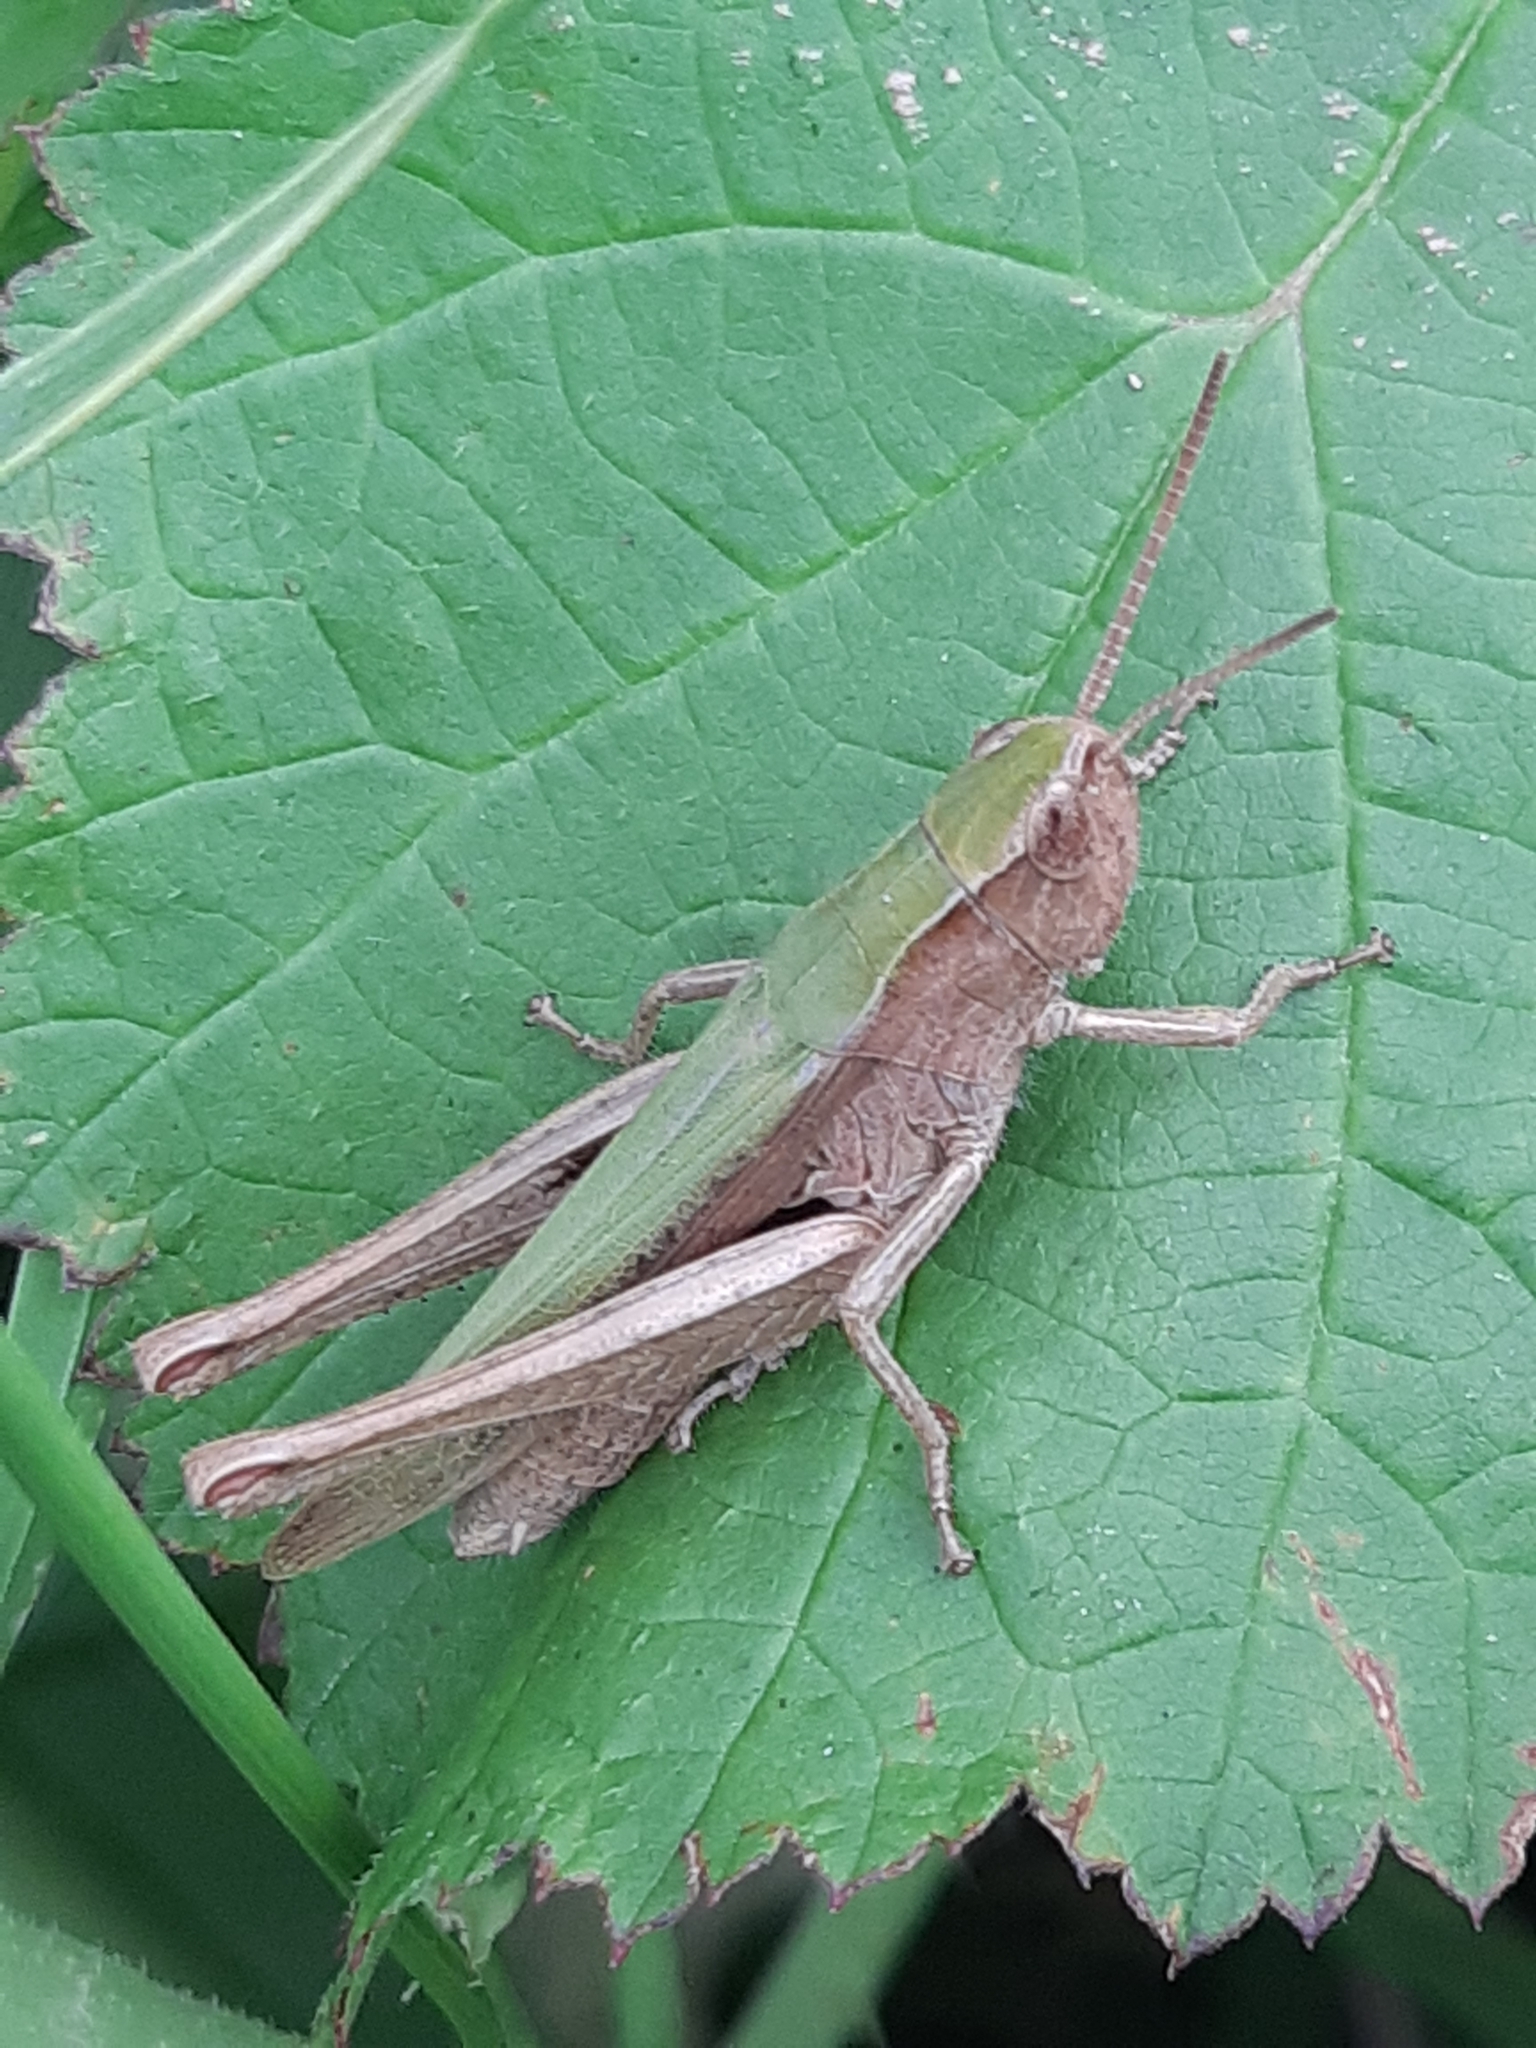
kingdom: Animalia
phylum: Arthropoda
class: Insecta
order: Orthoptera
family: Acrididae
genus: Chorthippus
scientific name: Chorthippus dorsatus
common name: Steppe grasshopper
